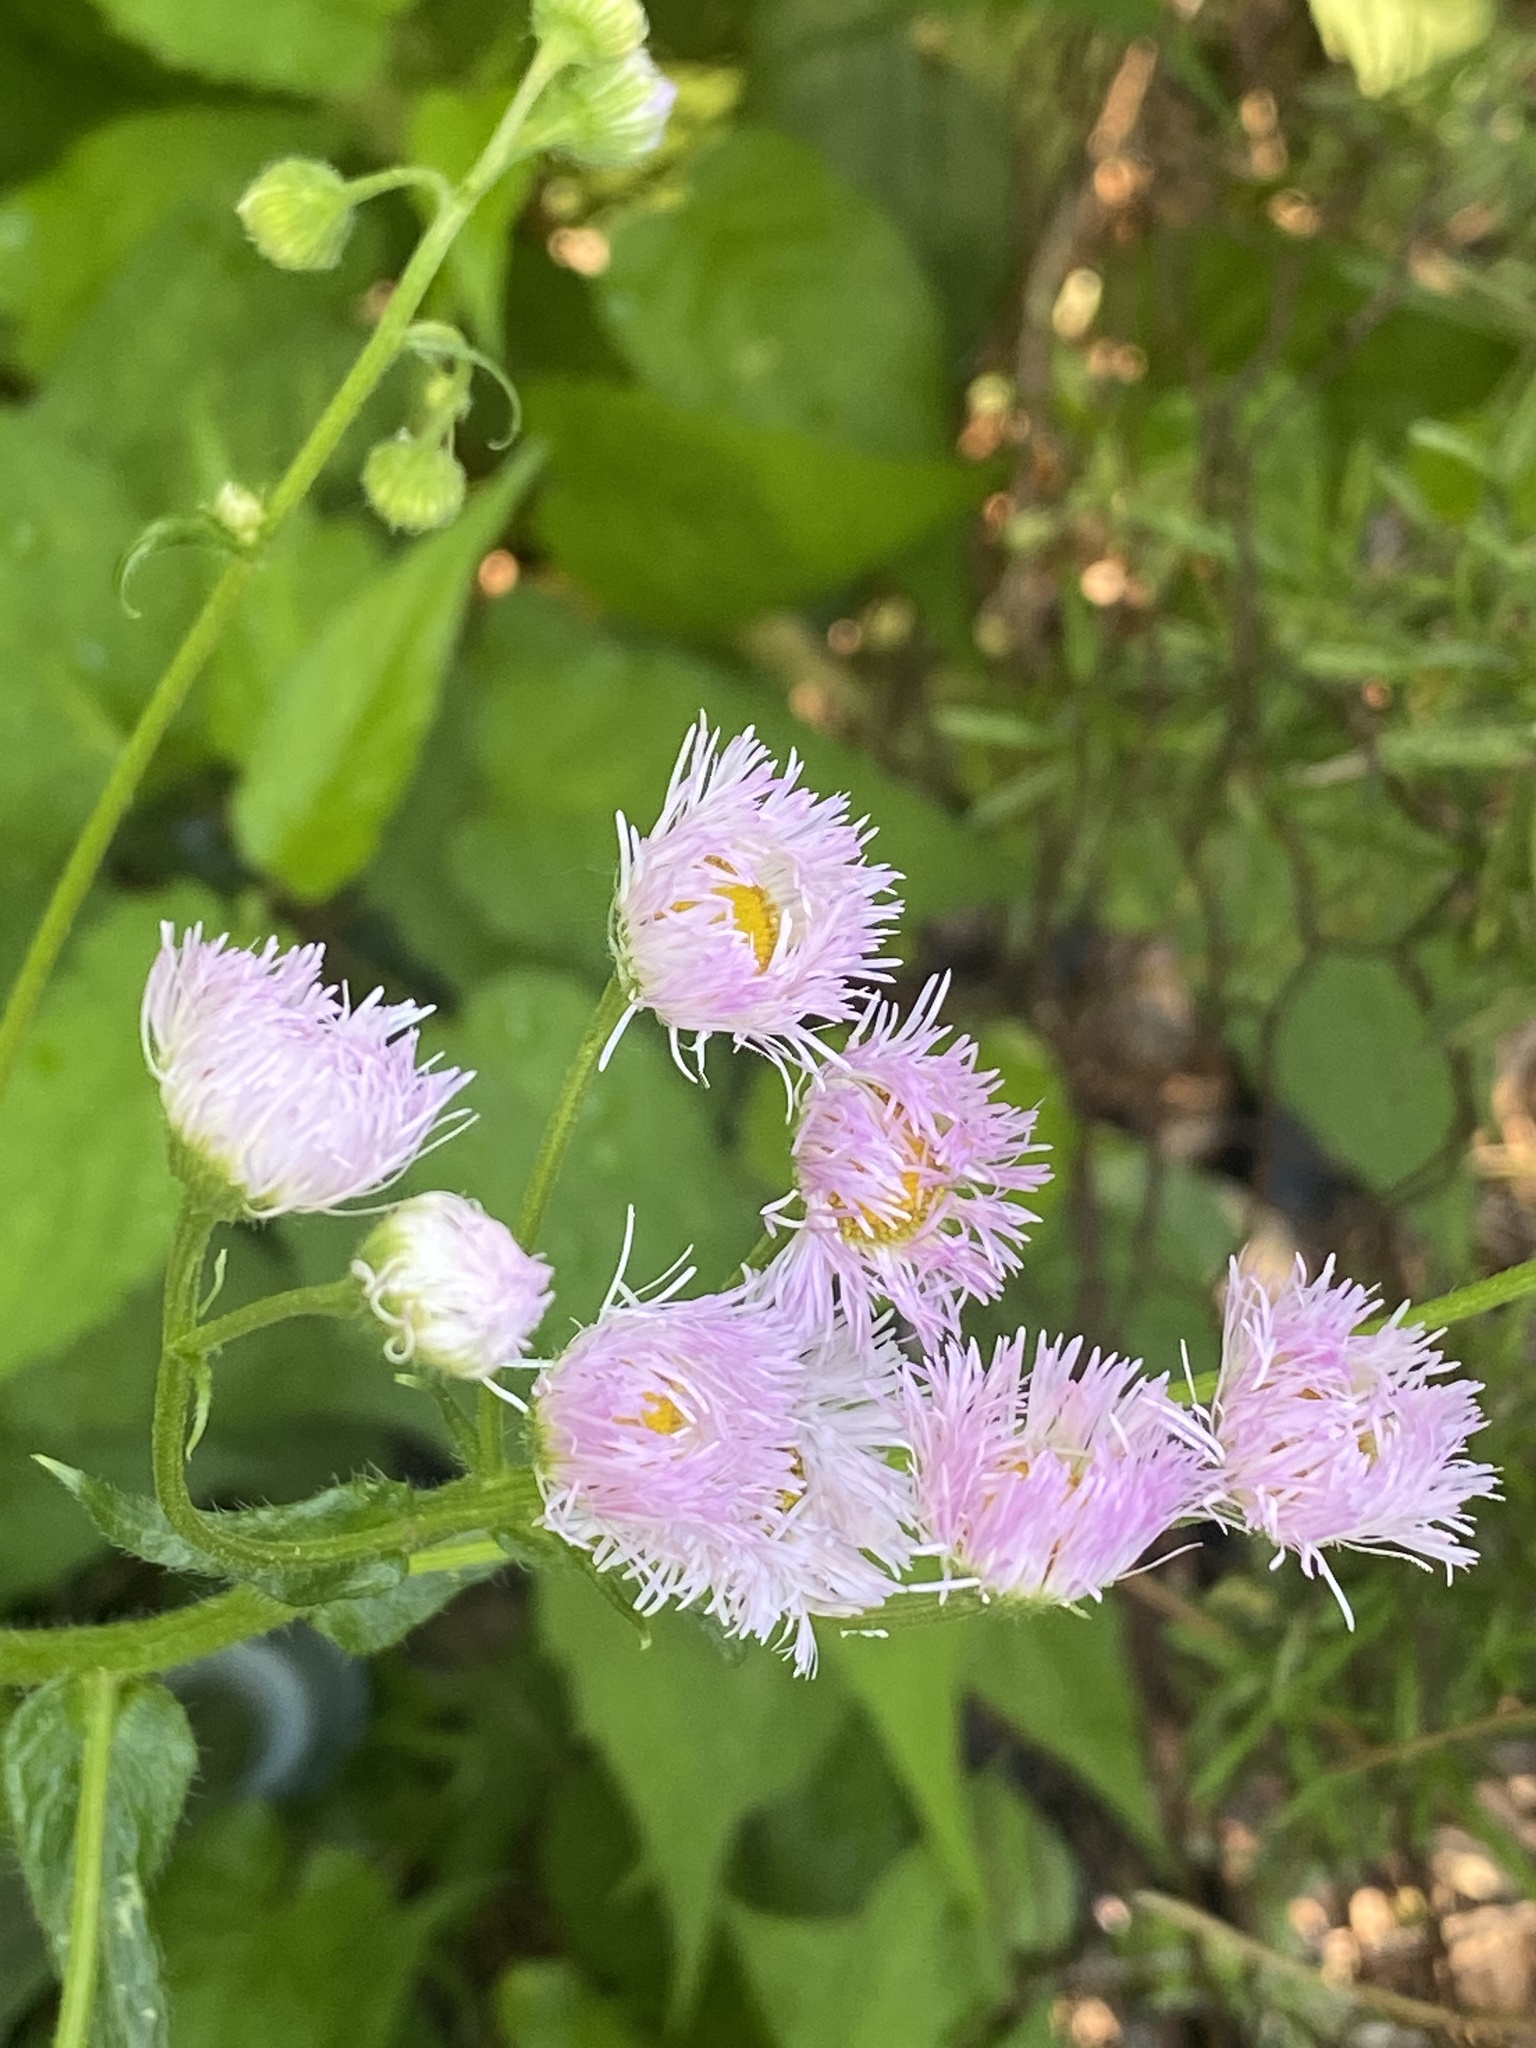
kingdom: Plantae
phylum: Tracheophyta
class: Magnoliopsida
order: Asterales
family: Asteraceae
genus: Erigeron
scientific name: Erigeron philadelphicus
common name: Robin's-plantain
